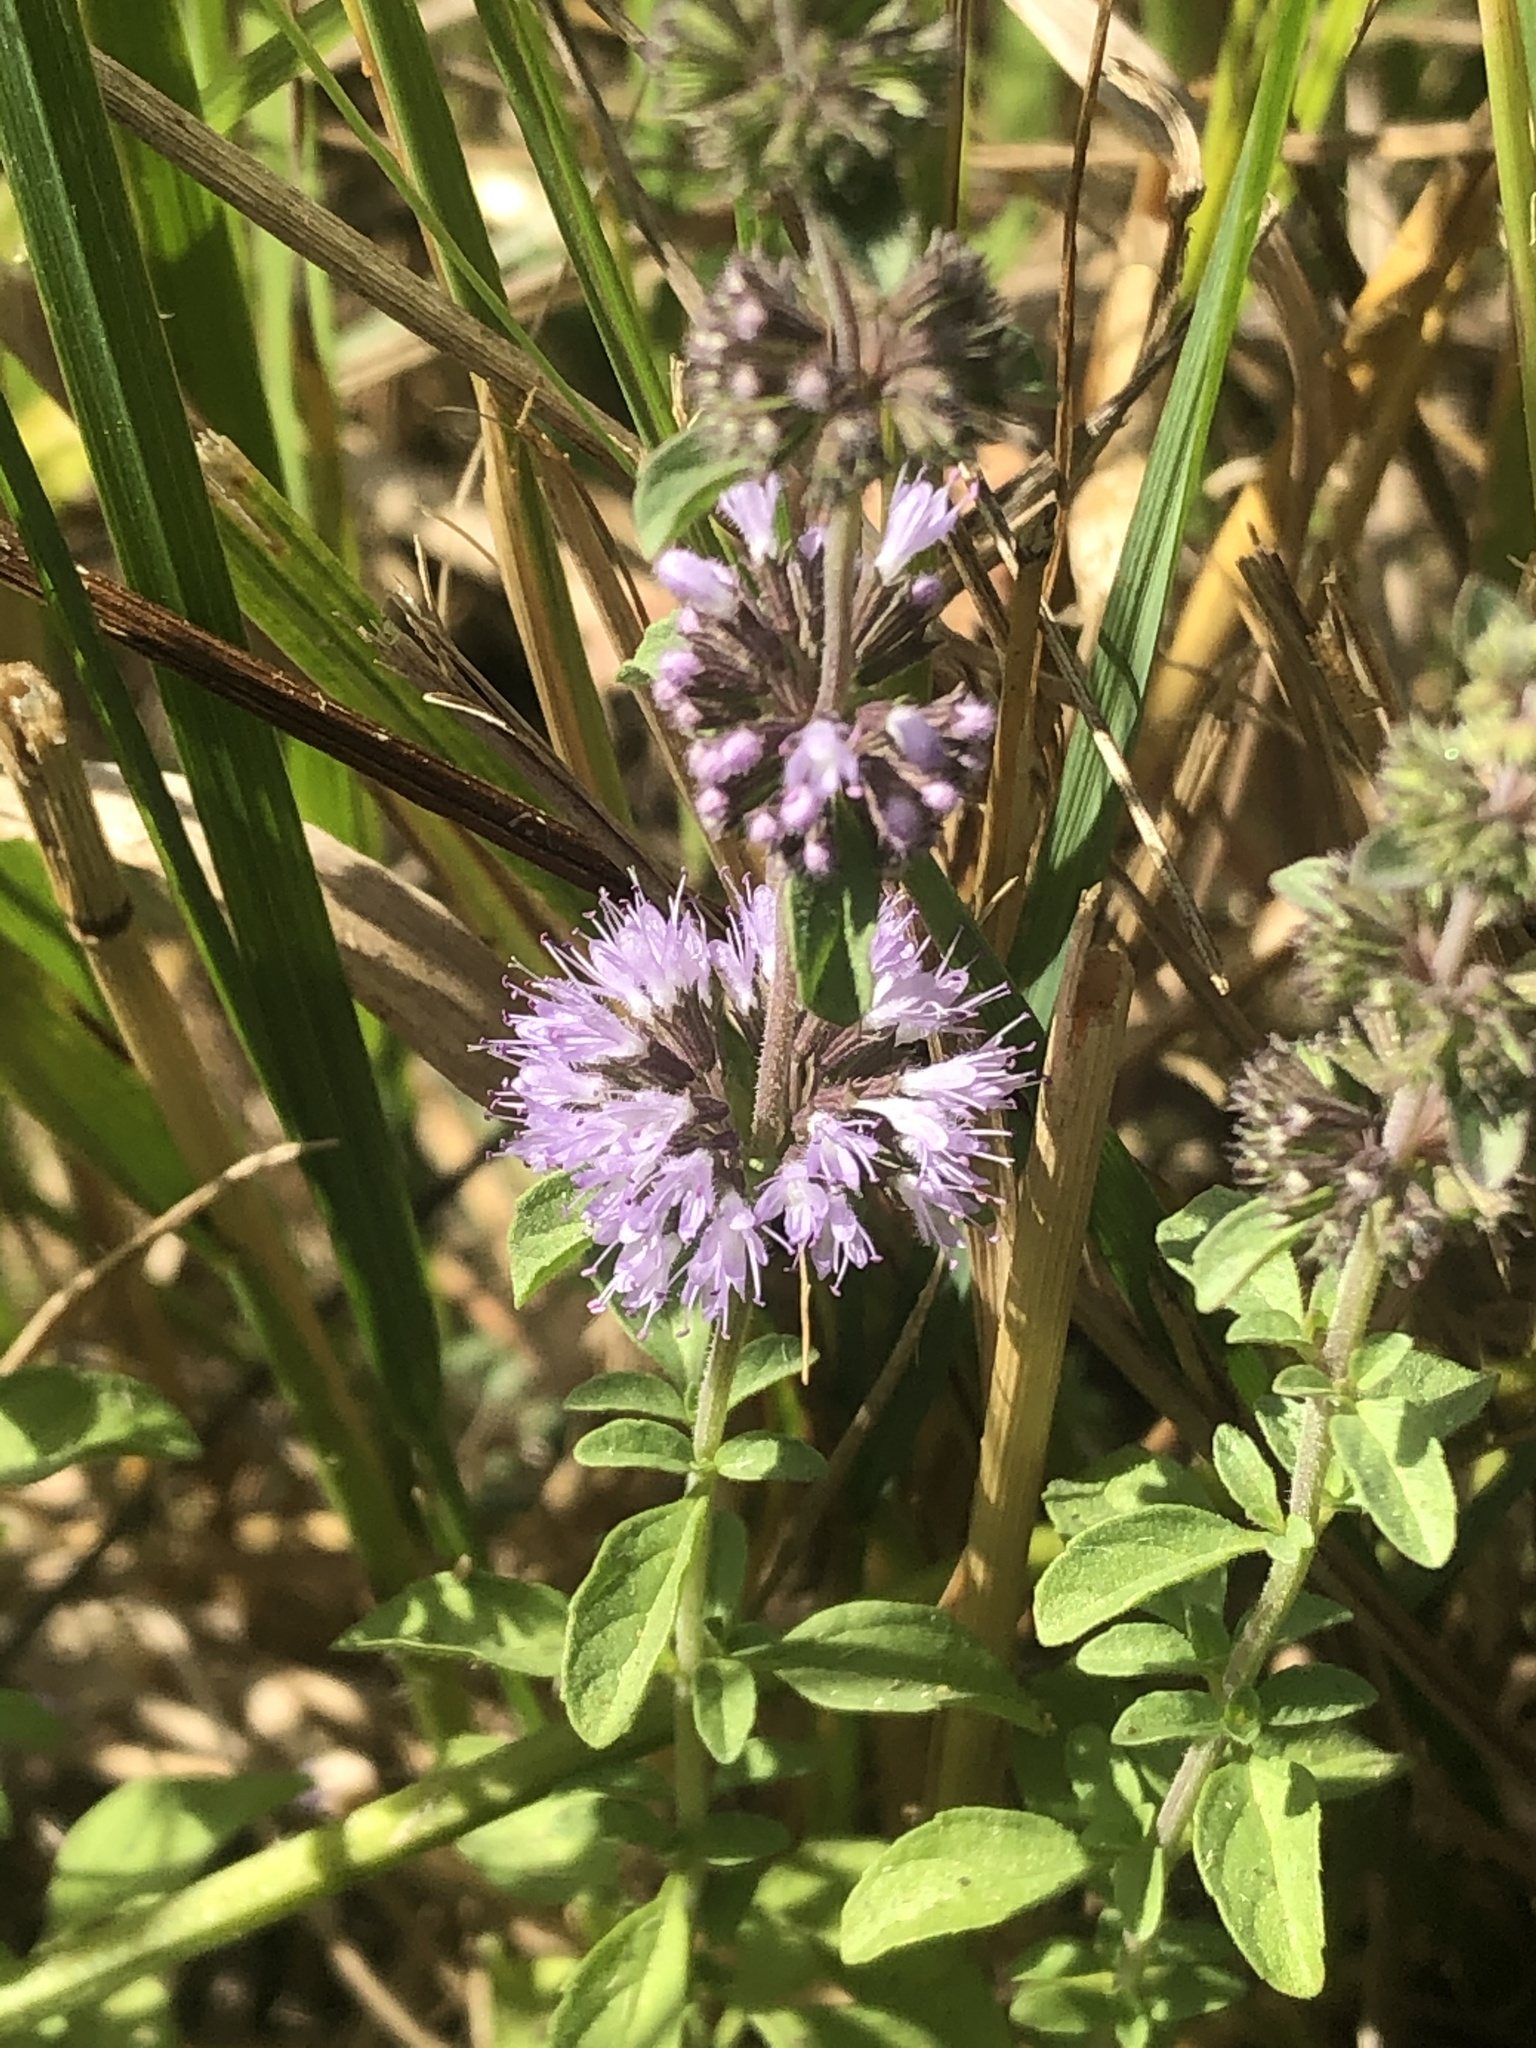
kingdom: Plantae
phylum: Tracheophyta
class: Magnoliopsida
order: Lamiales
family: Lamiaceae
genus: Mentha
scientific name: Mentha pulegium
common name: Pennyroyal
